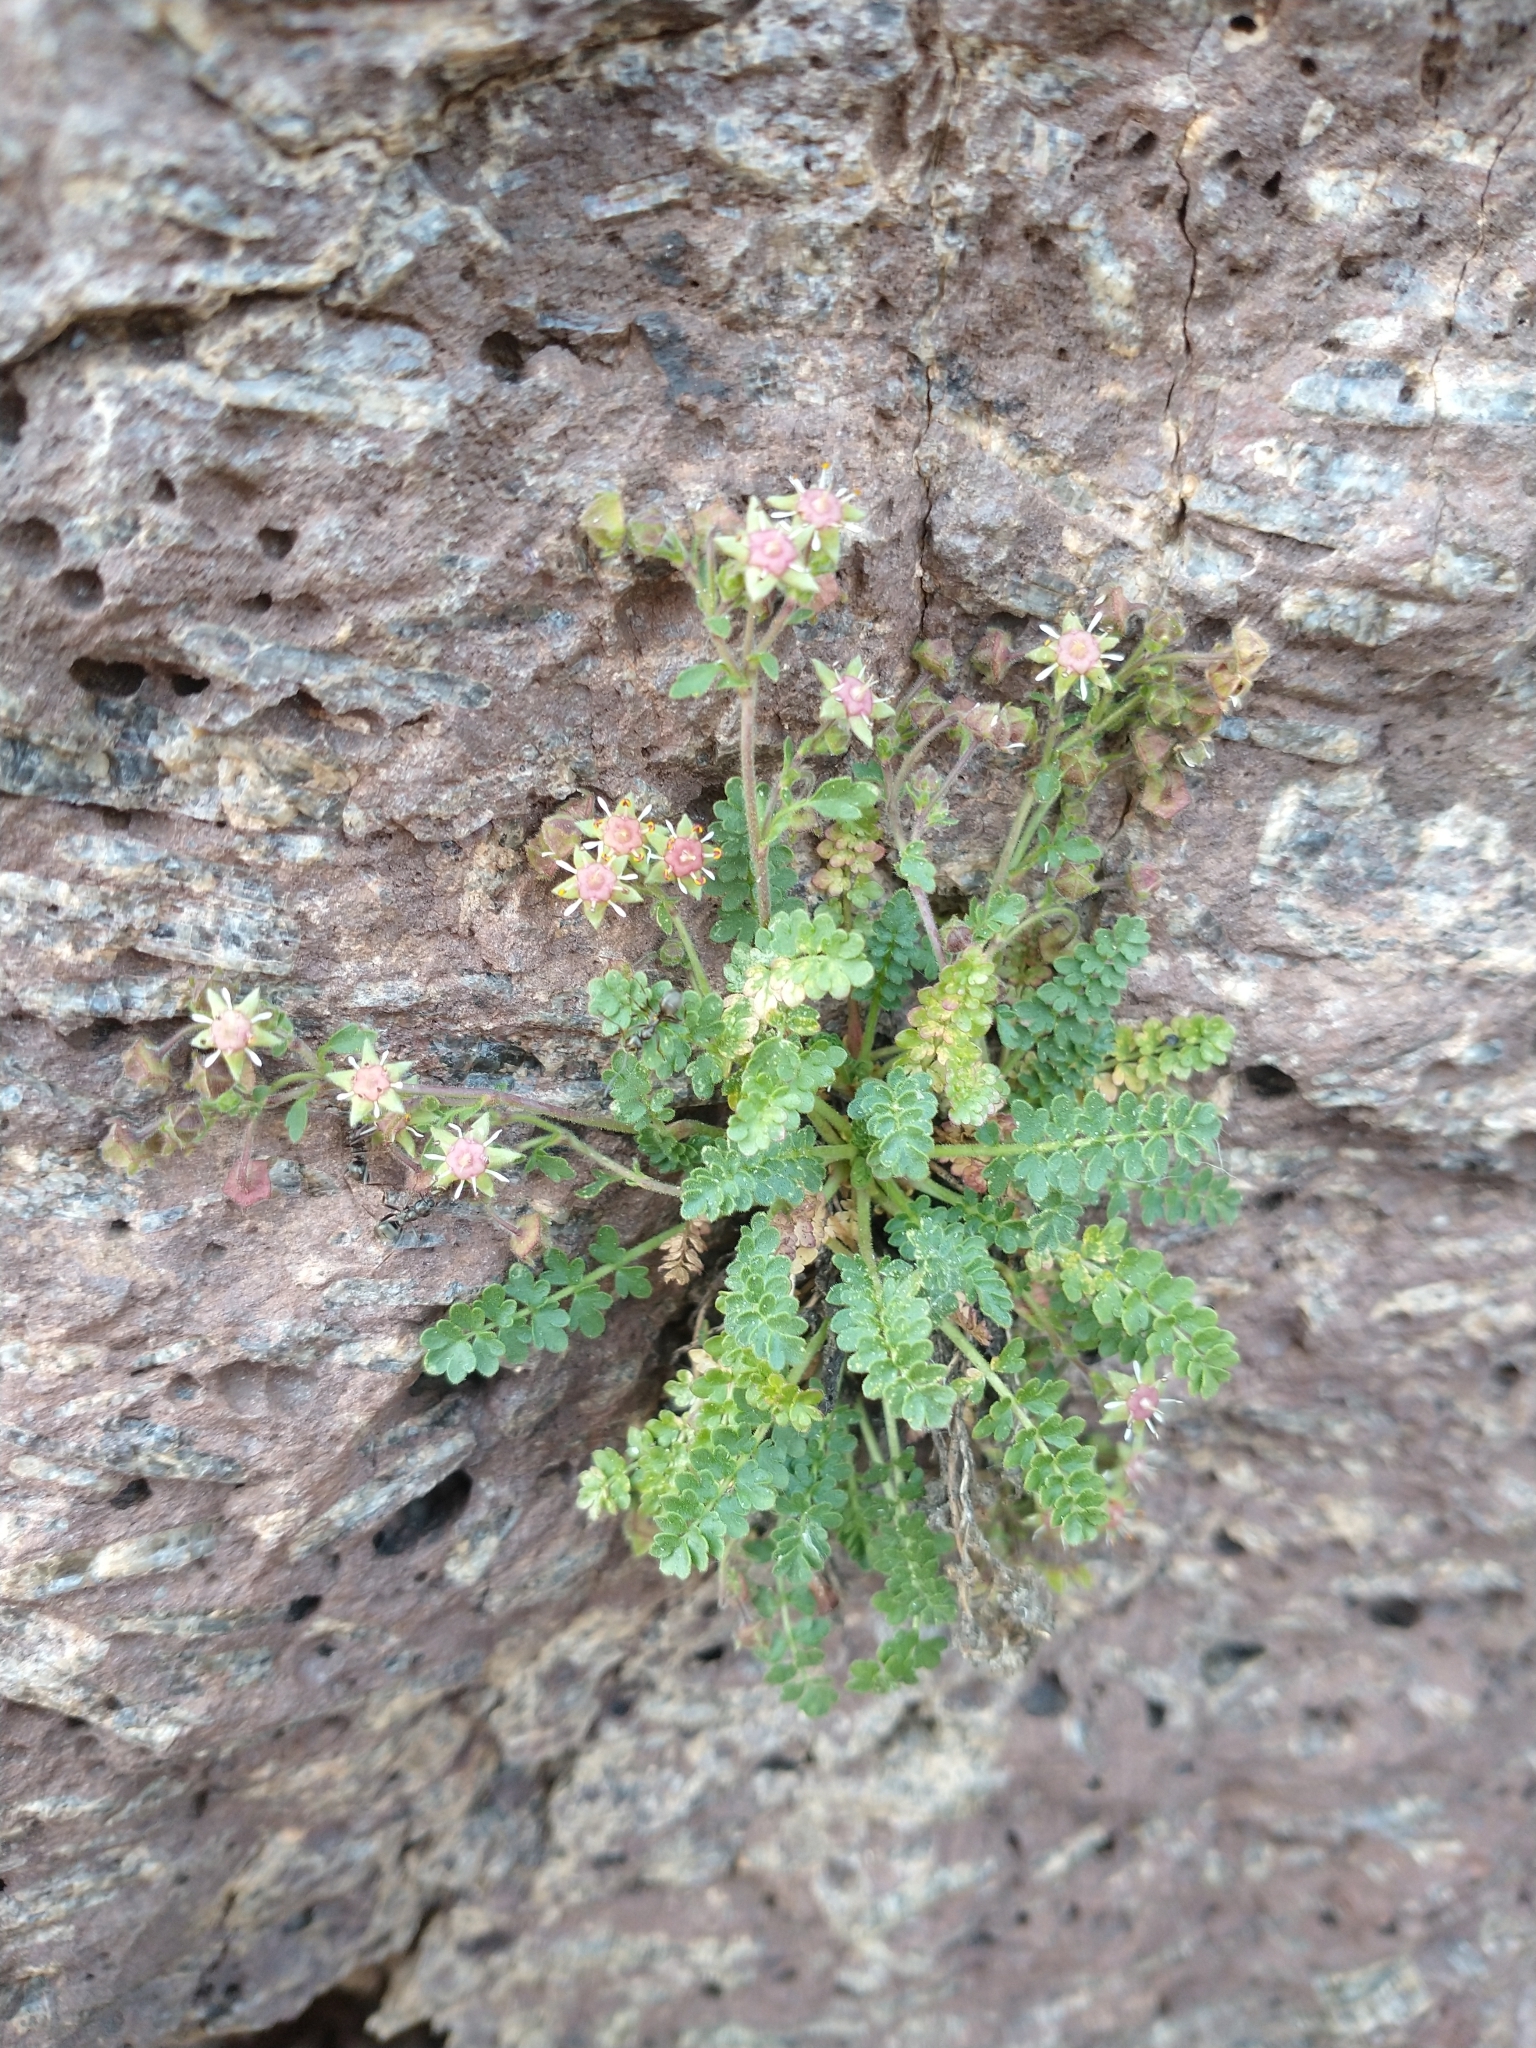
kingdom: Plantae
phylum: Tracheophyta
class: Magnoliopsida
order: Rosales
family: Rosaceae
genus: Potentilla
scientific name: Potentilla baileyi
